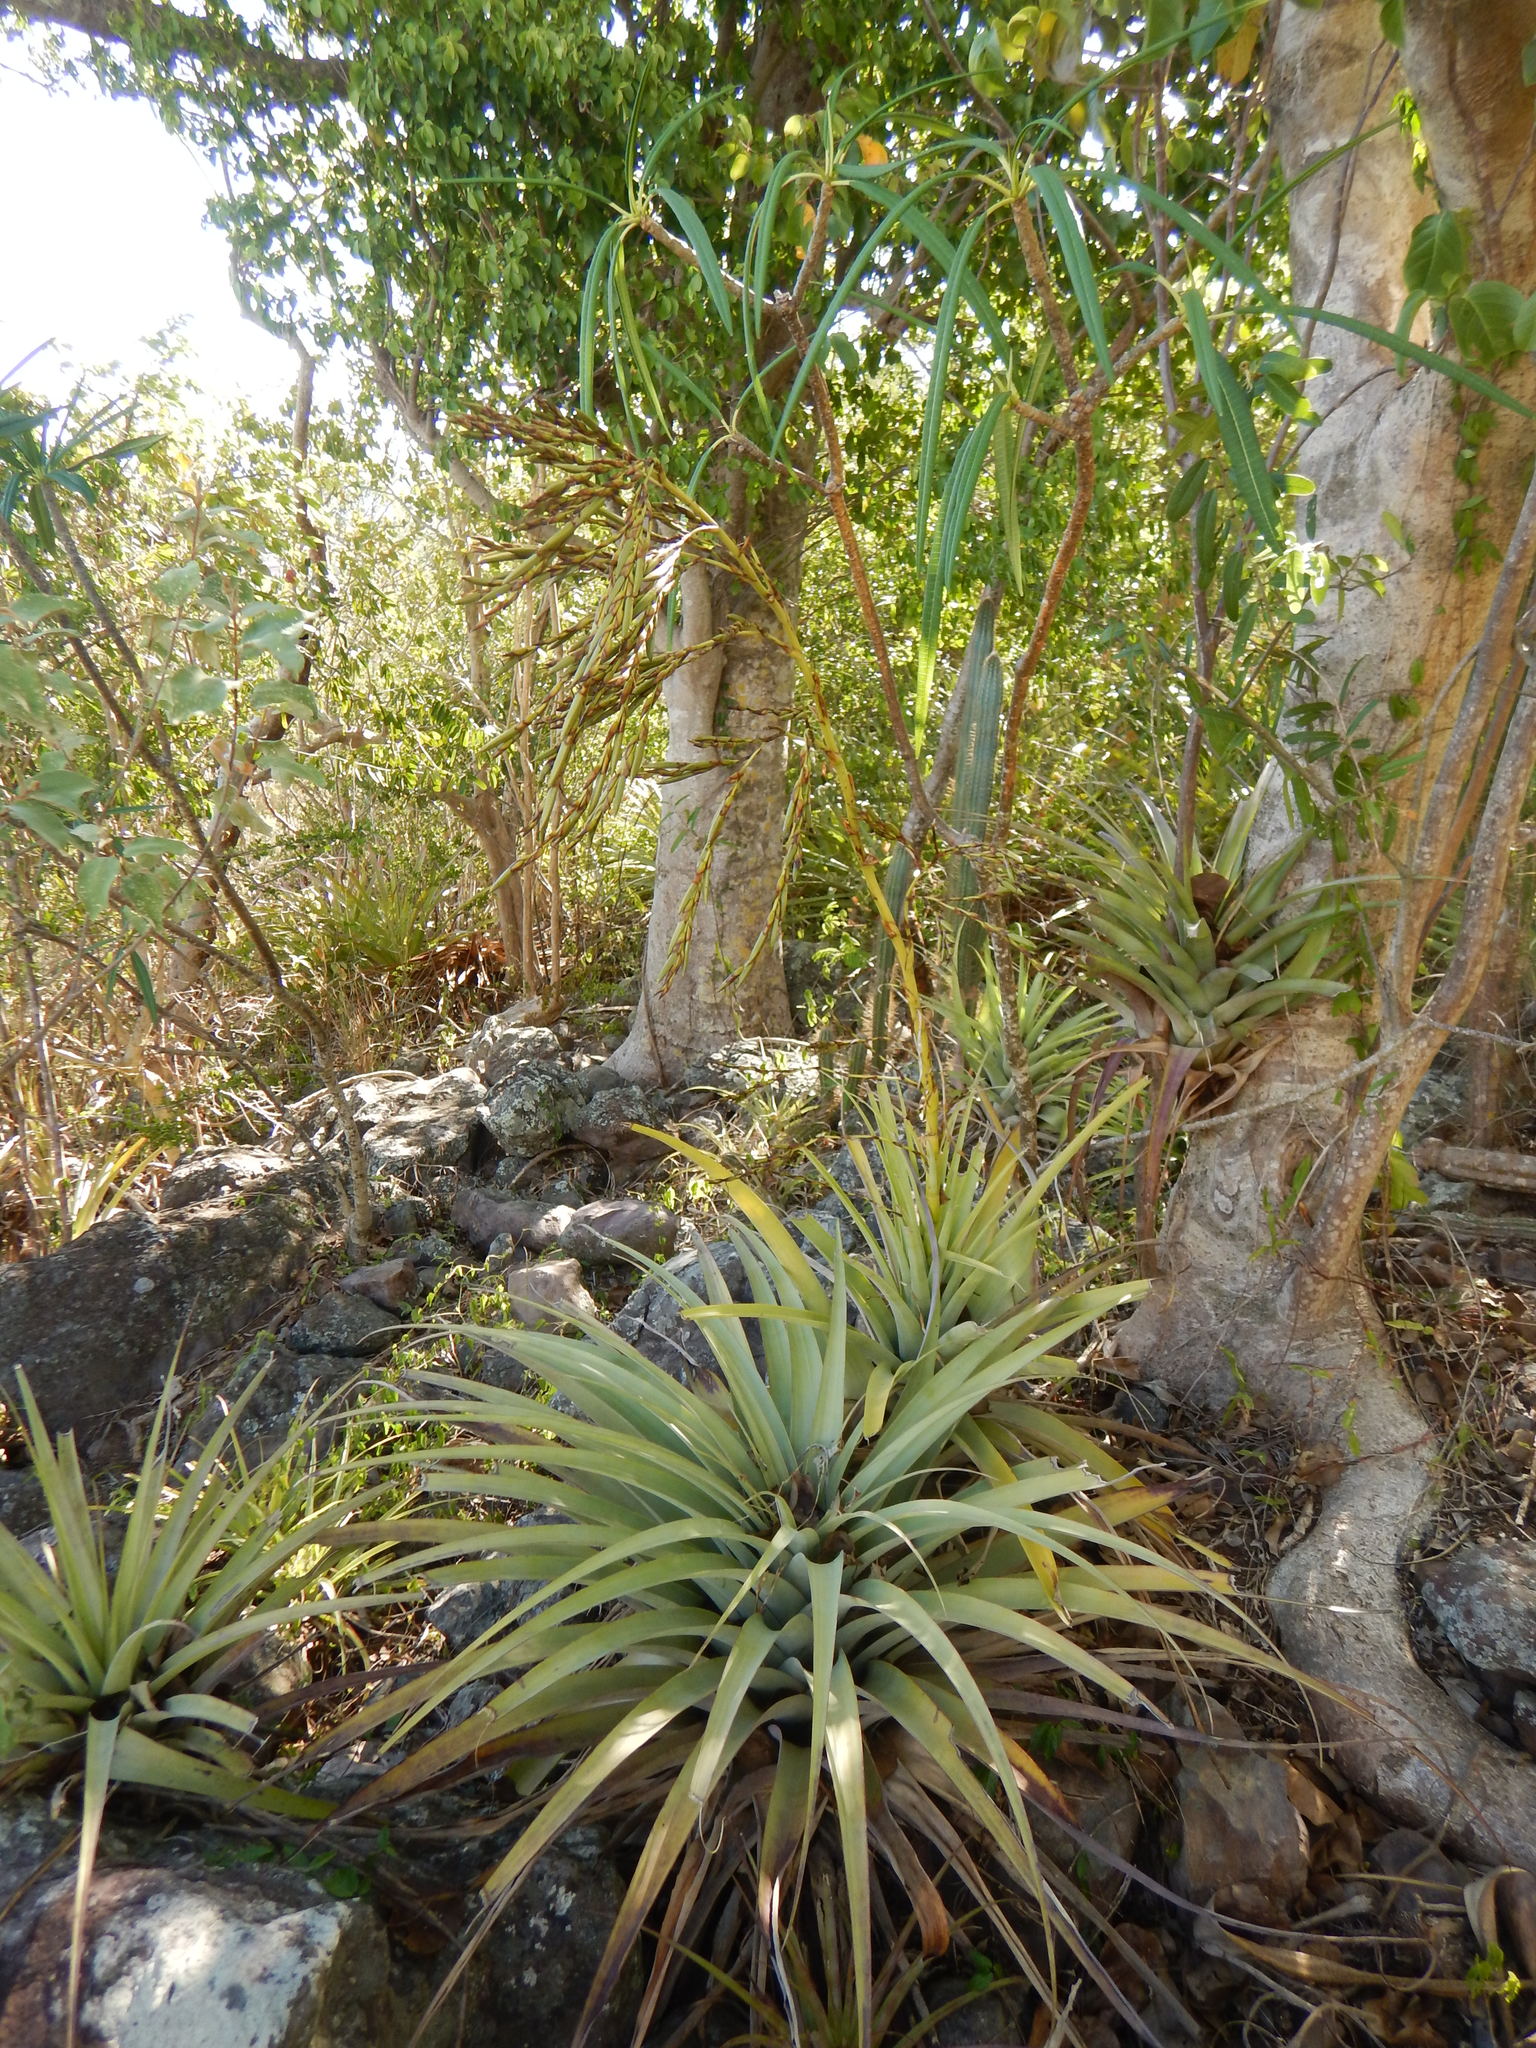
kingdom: Plantae
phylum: Tracheophyta
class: Liliopsida
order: Poales
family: Bromeliaceae
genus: Tillandsia
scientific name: Tillandsia utriculata
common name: Wild pine
